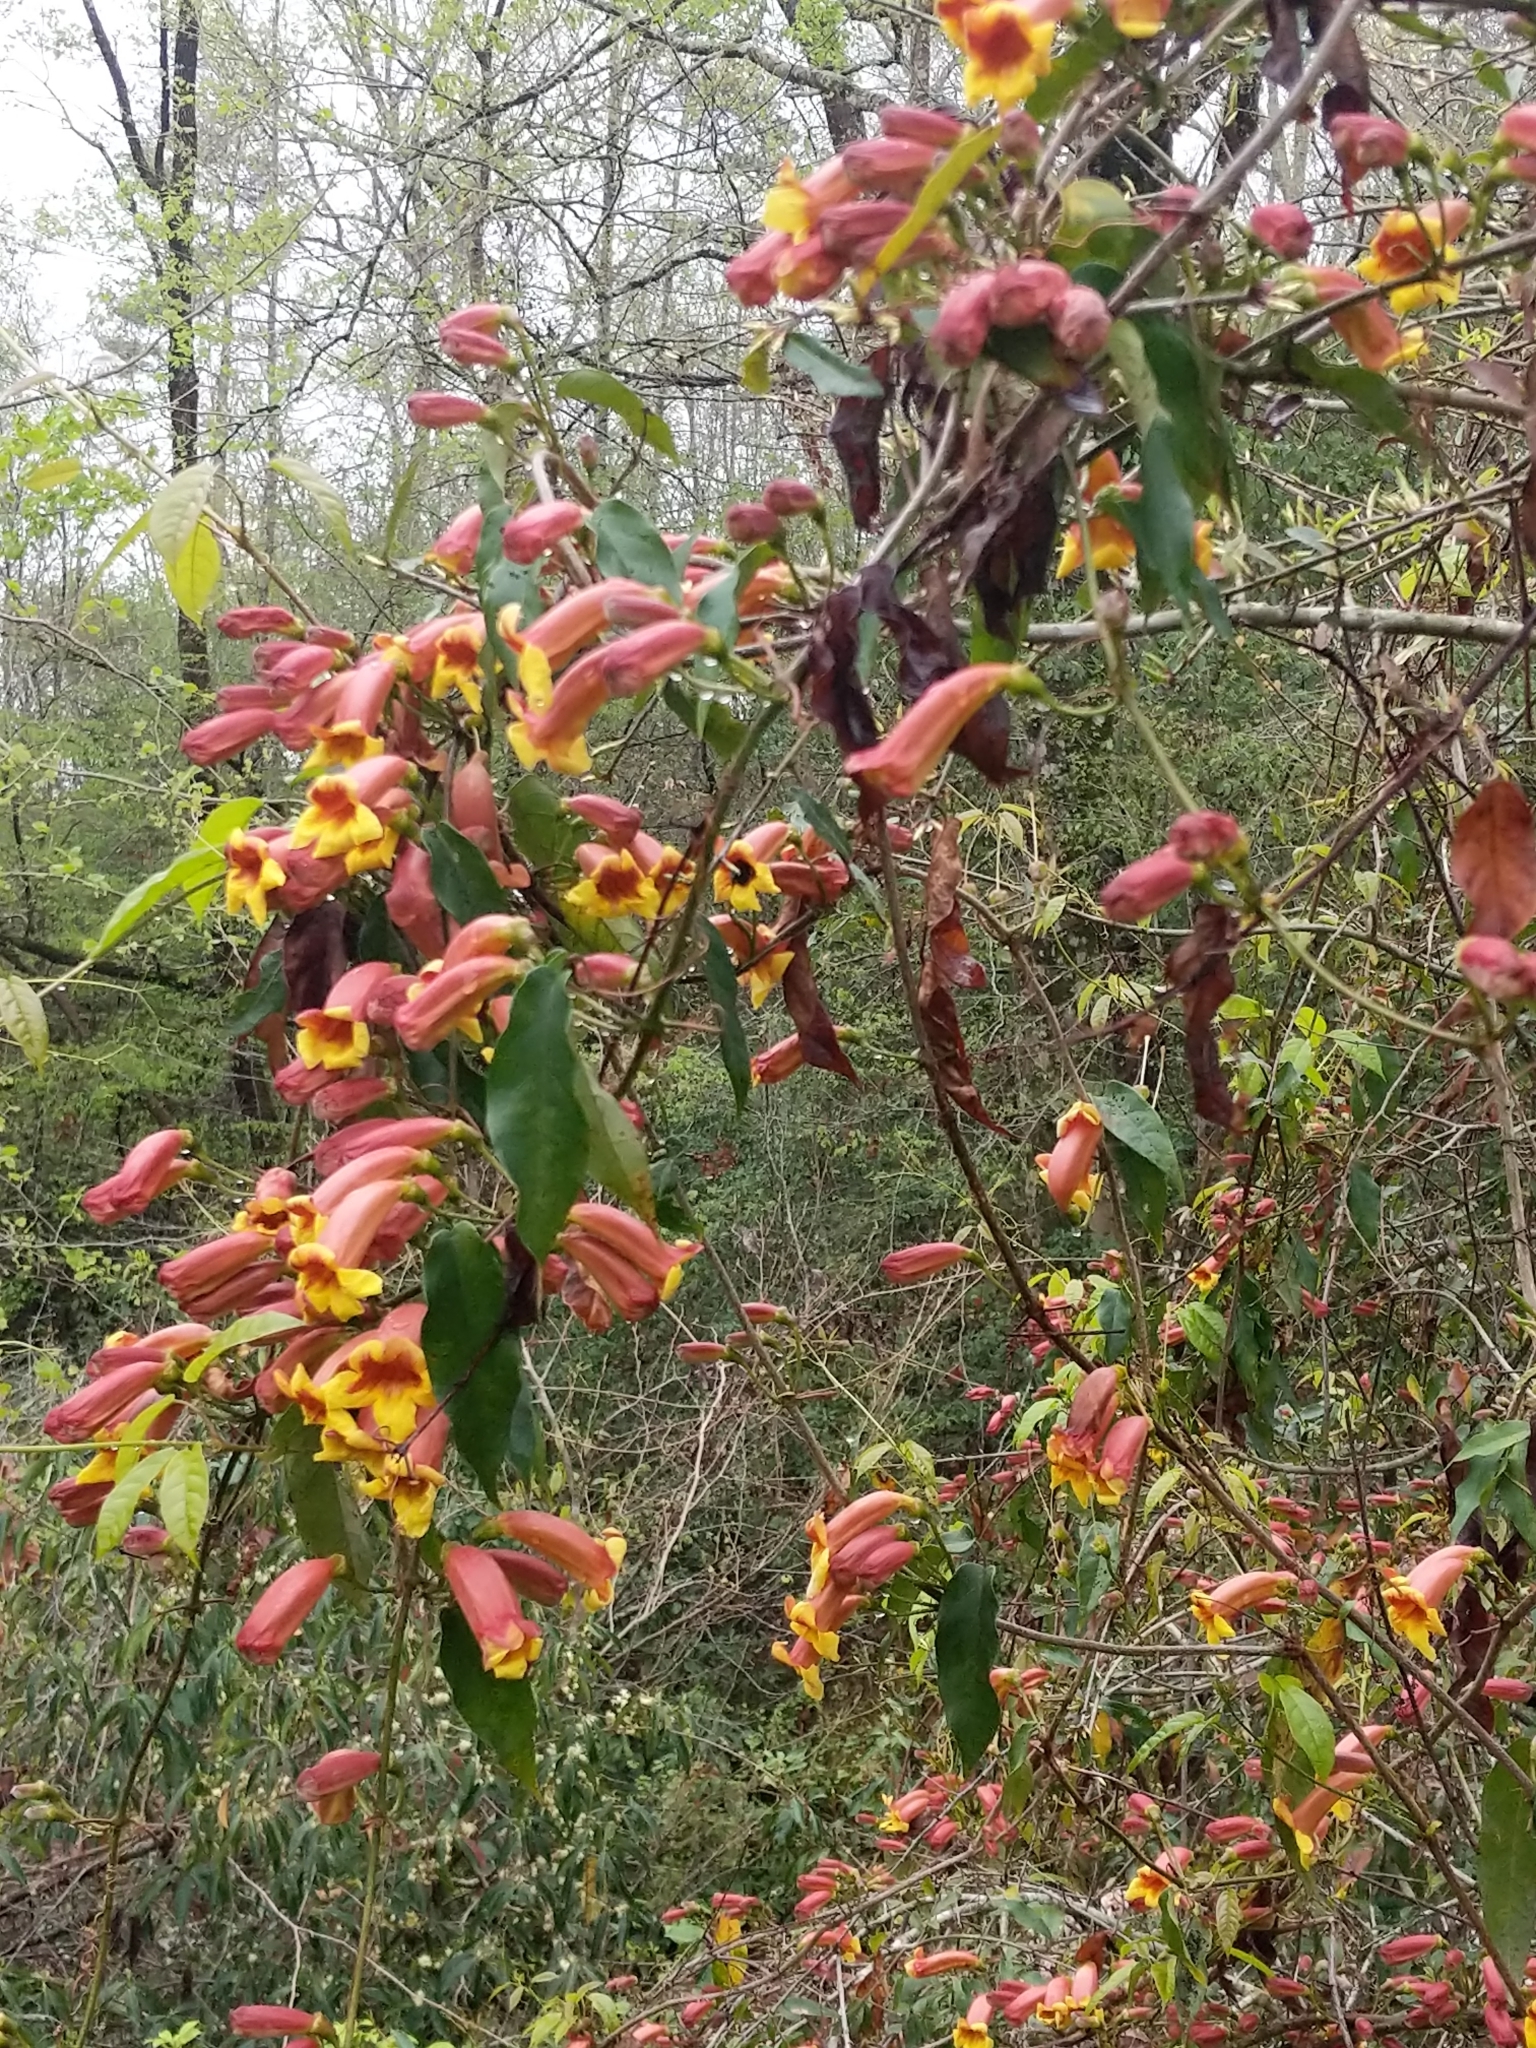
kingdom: Plantae
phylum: Tracheophyta
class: Magnoliopsida
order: Lamiales
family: Bignoniaceae
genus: Bignonia
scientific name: Bignonia capreolata
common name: Crossvine
